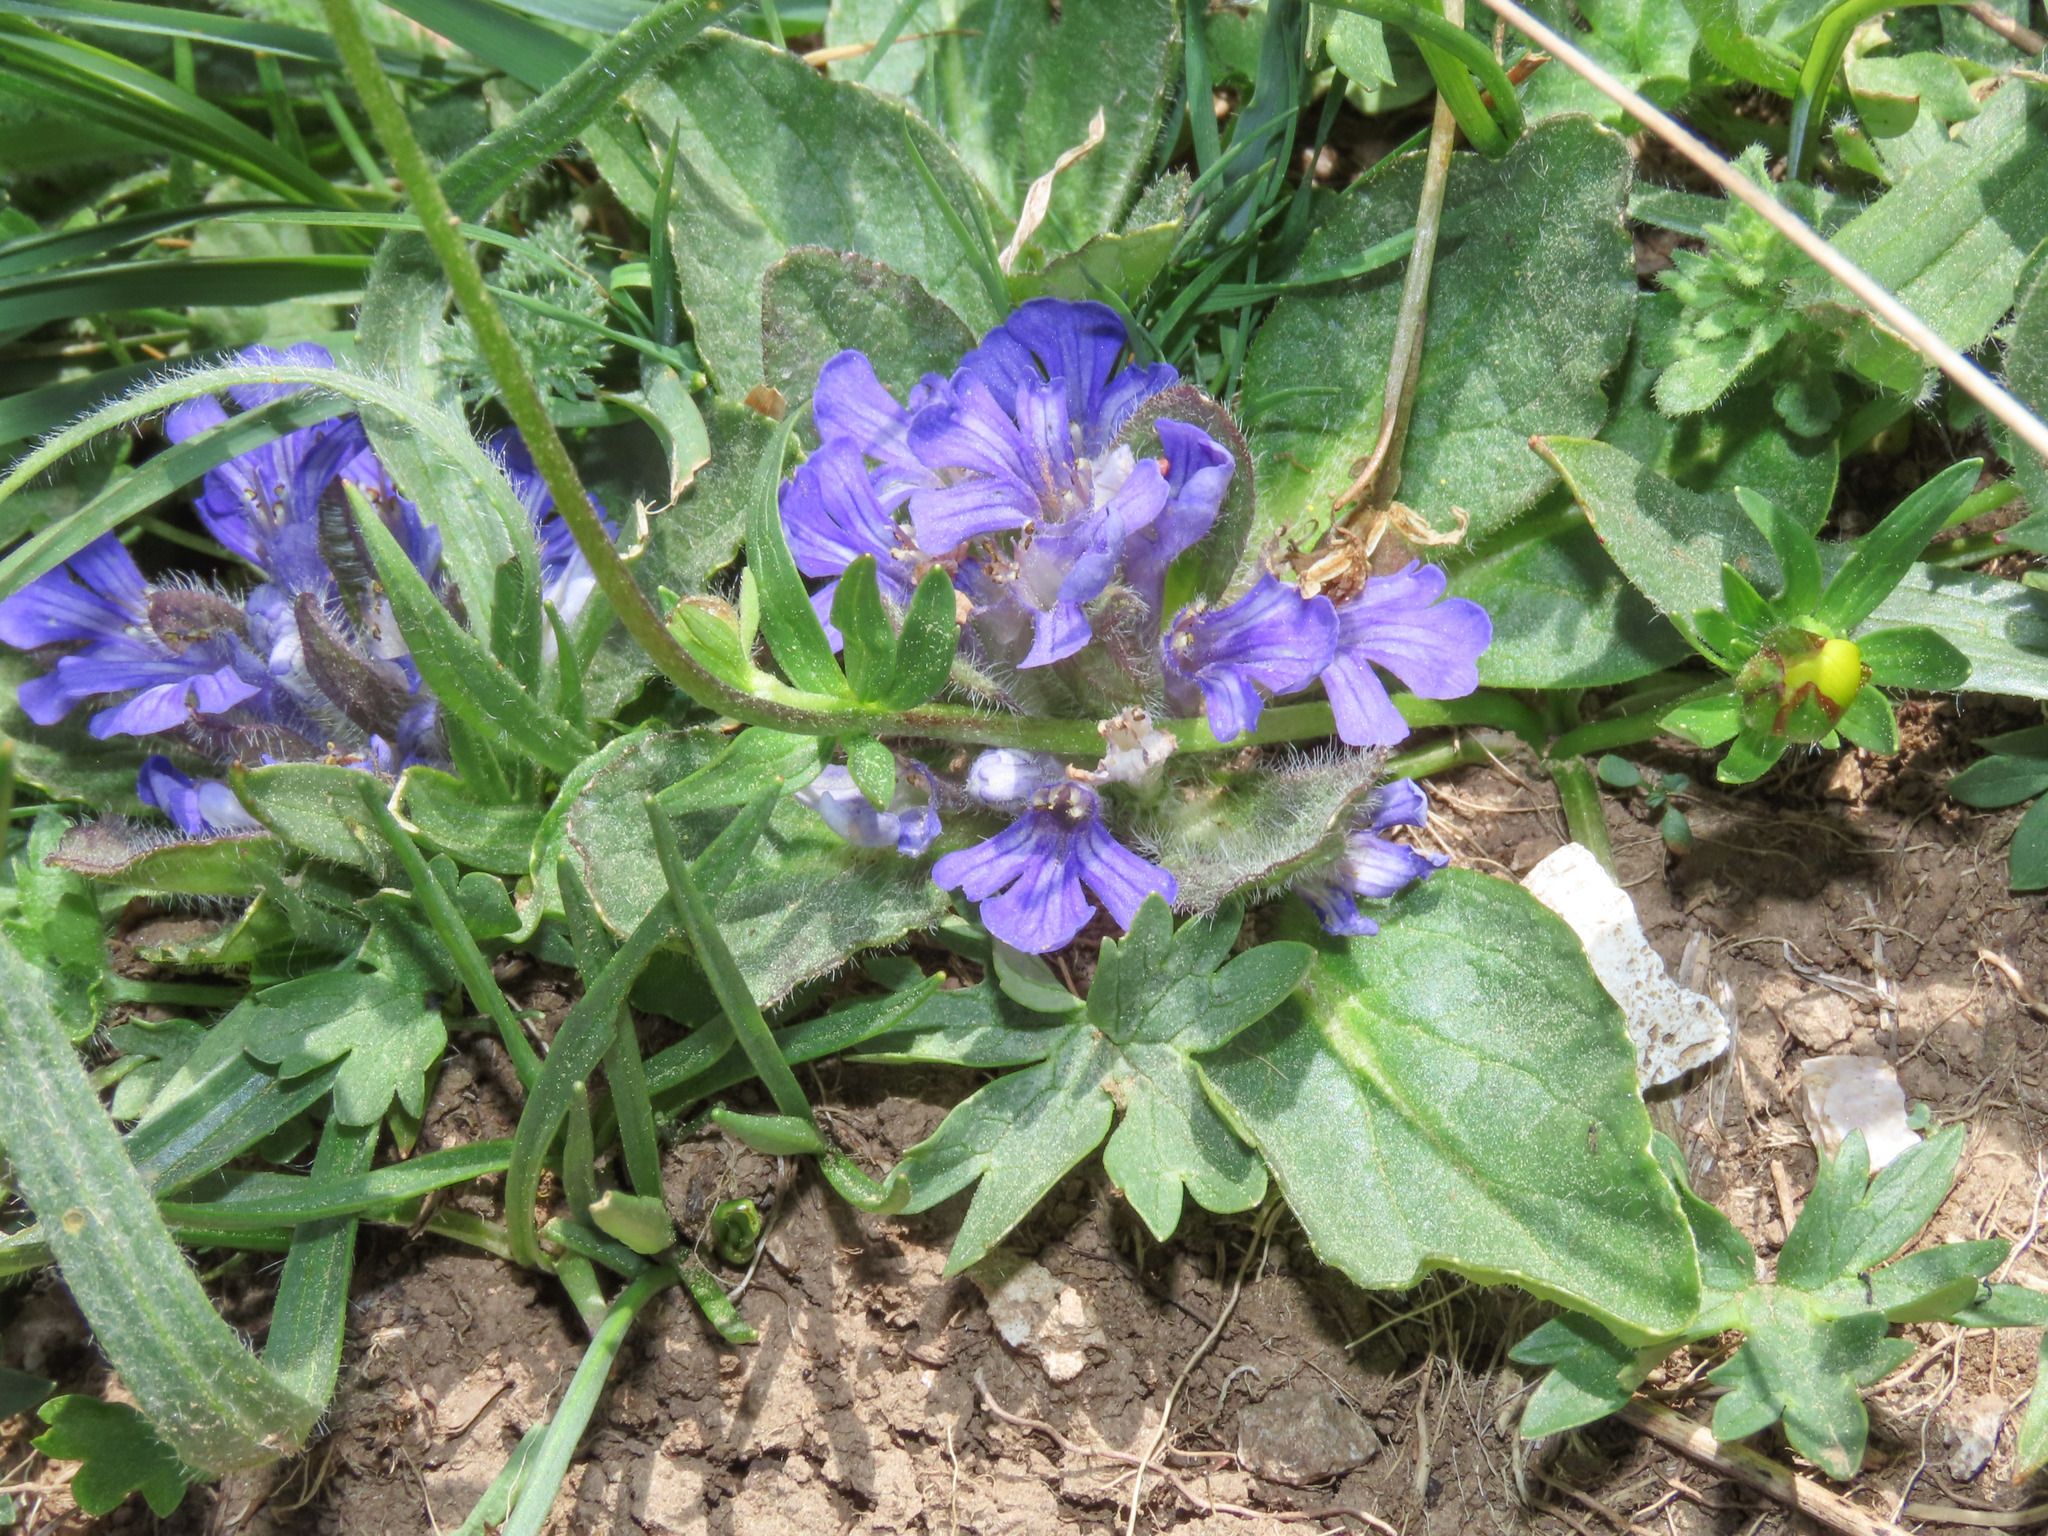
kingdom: Plantae
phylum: Tracheophyta
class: Magnoliopsida
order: Lamiales
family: Lamiaceae
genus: Ajuga
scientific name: Ajuga tenorei
